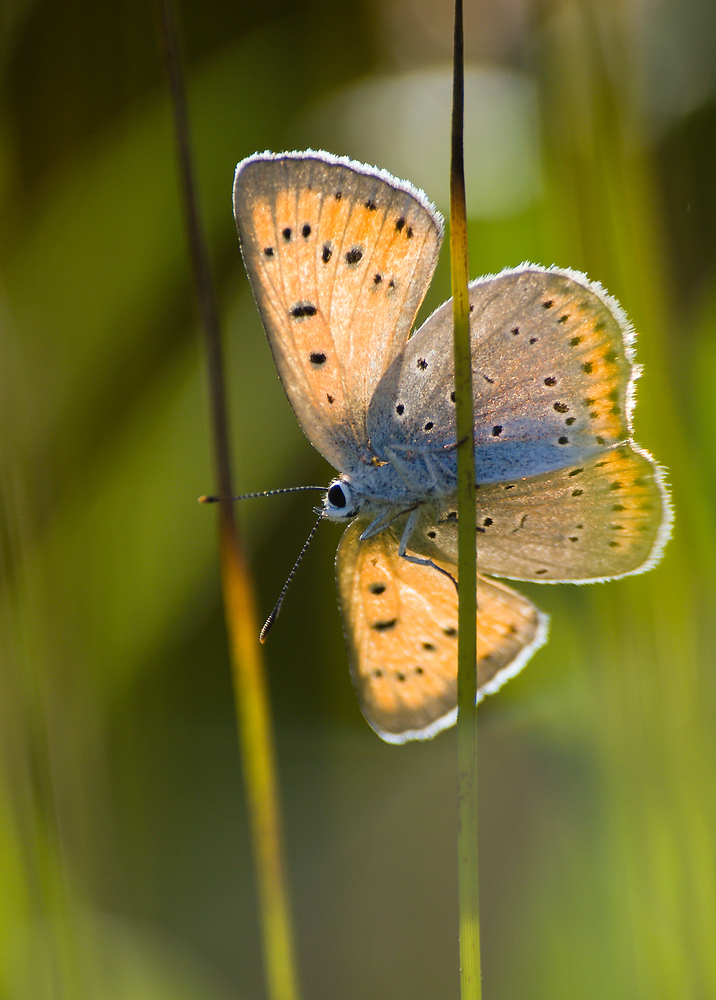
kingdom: Animalia
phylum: Arthropoda
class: Insecta
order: Lepidoptera
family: Lycaenidae
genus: Lycaena
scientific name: Lycaena dispar
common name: Large copper
